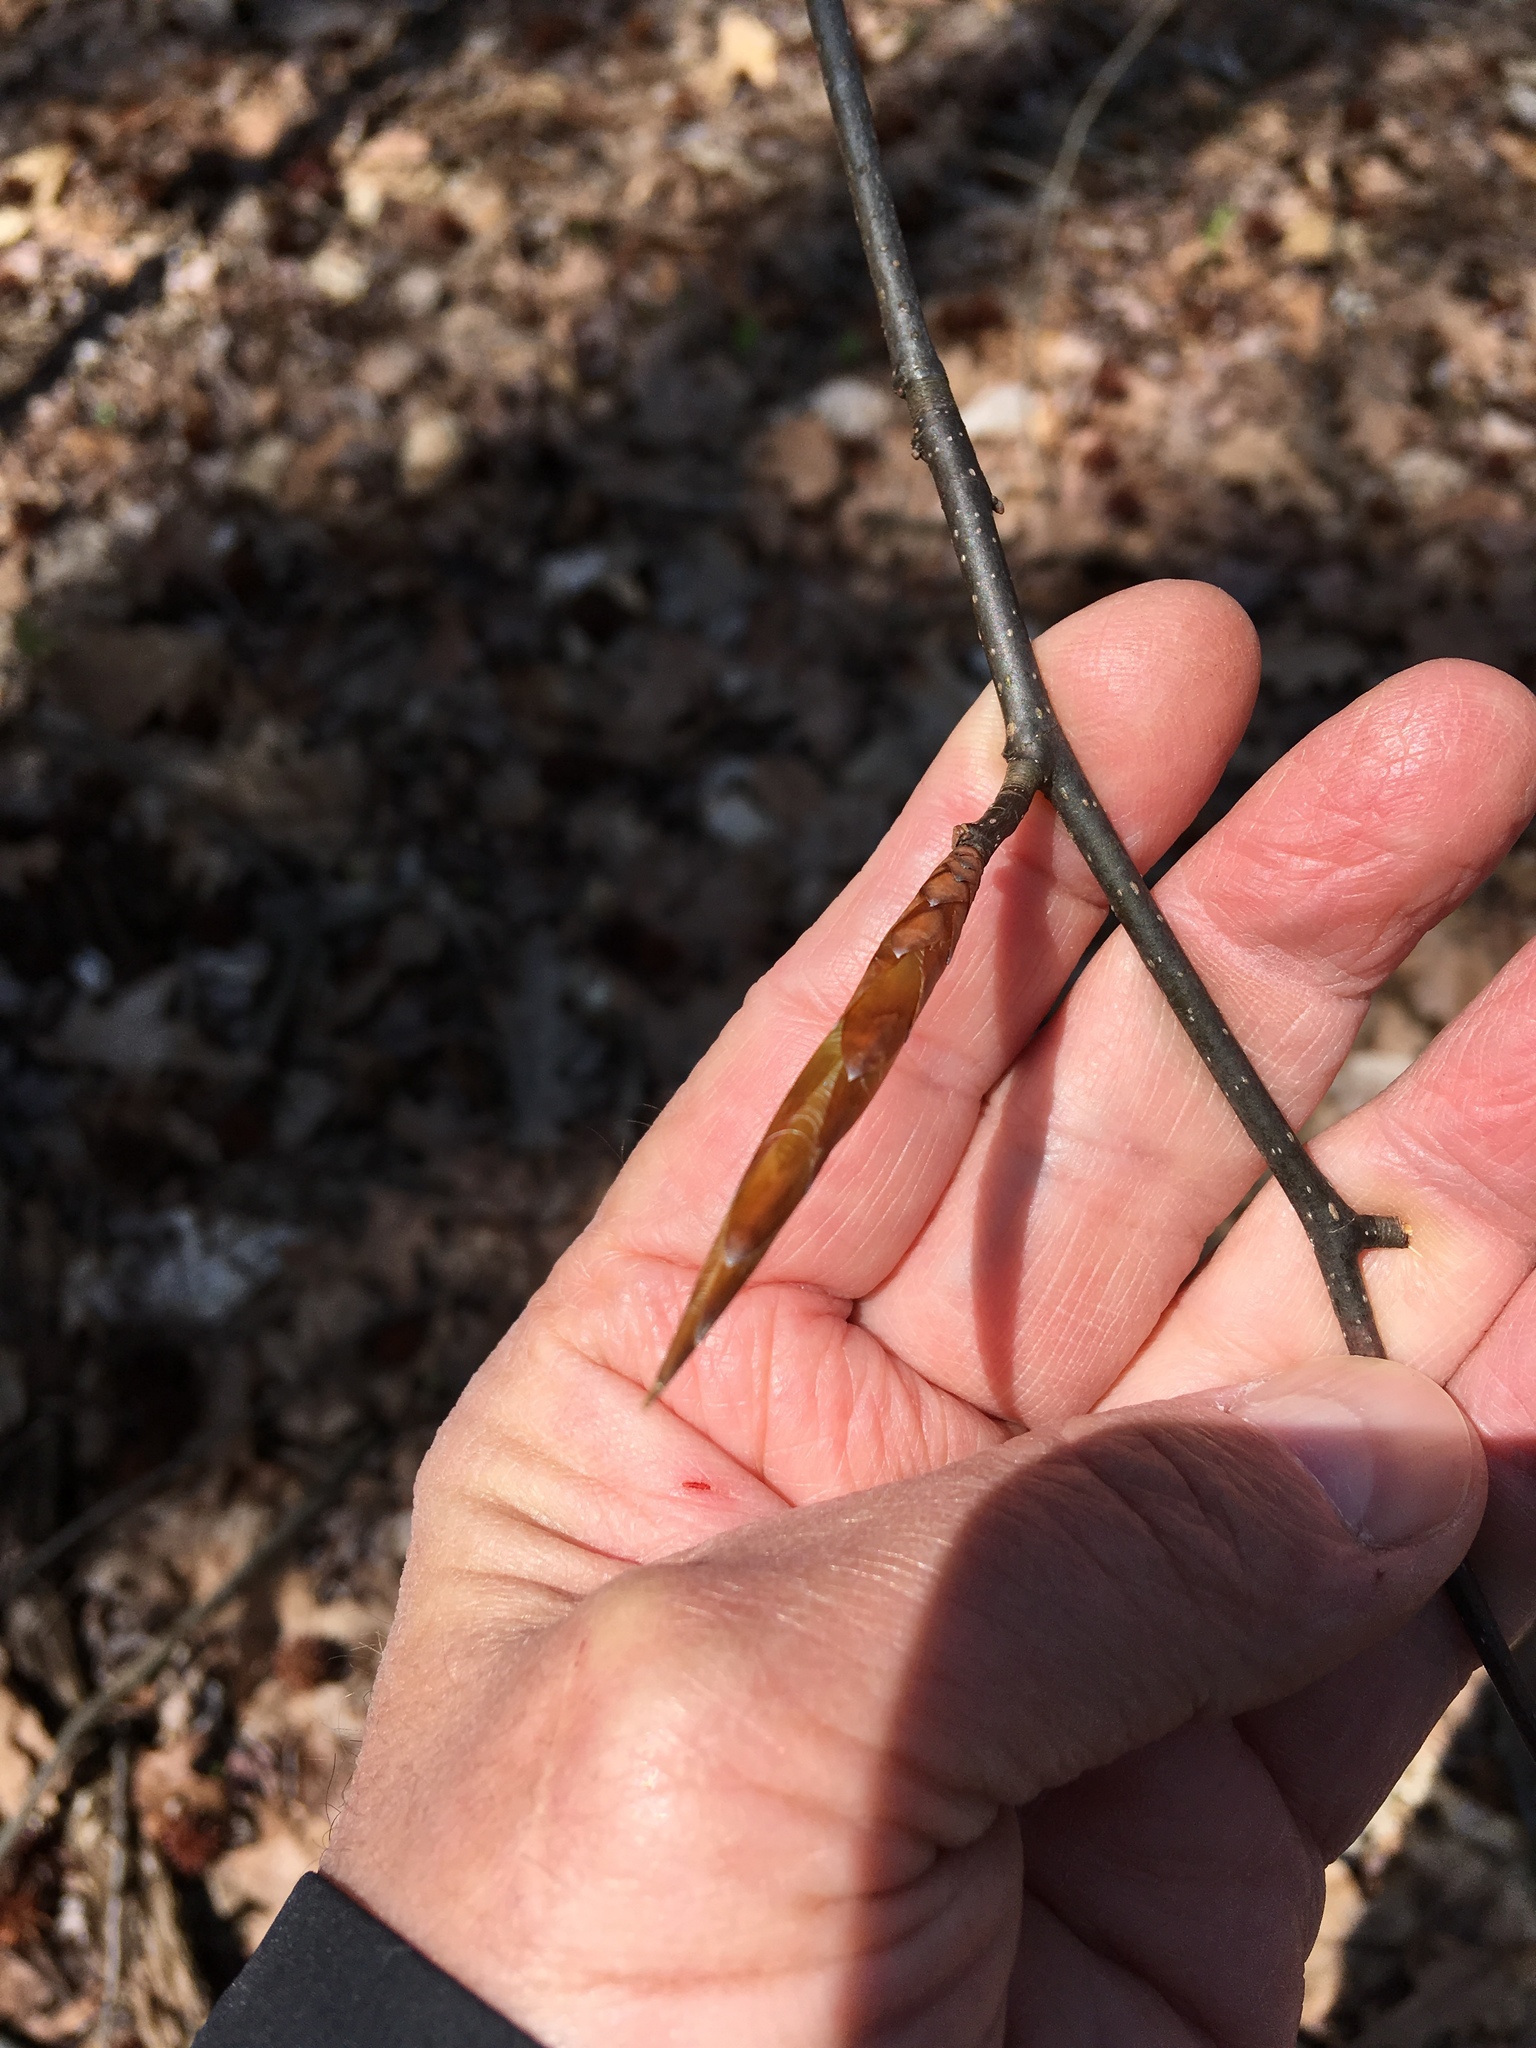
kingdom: Plantae
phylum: Tracheophyta
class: Magnoliopsida
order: Fagales
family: Fagaceae
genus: Fagus
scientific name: Fagus grandifolia
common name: American beech
